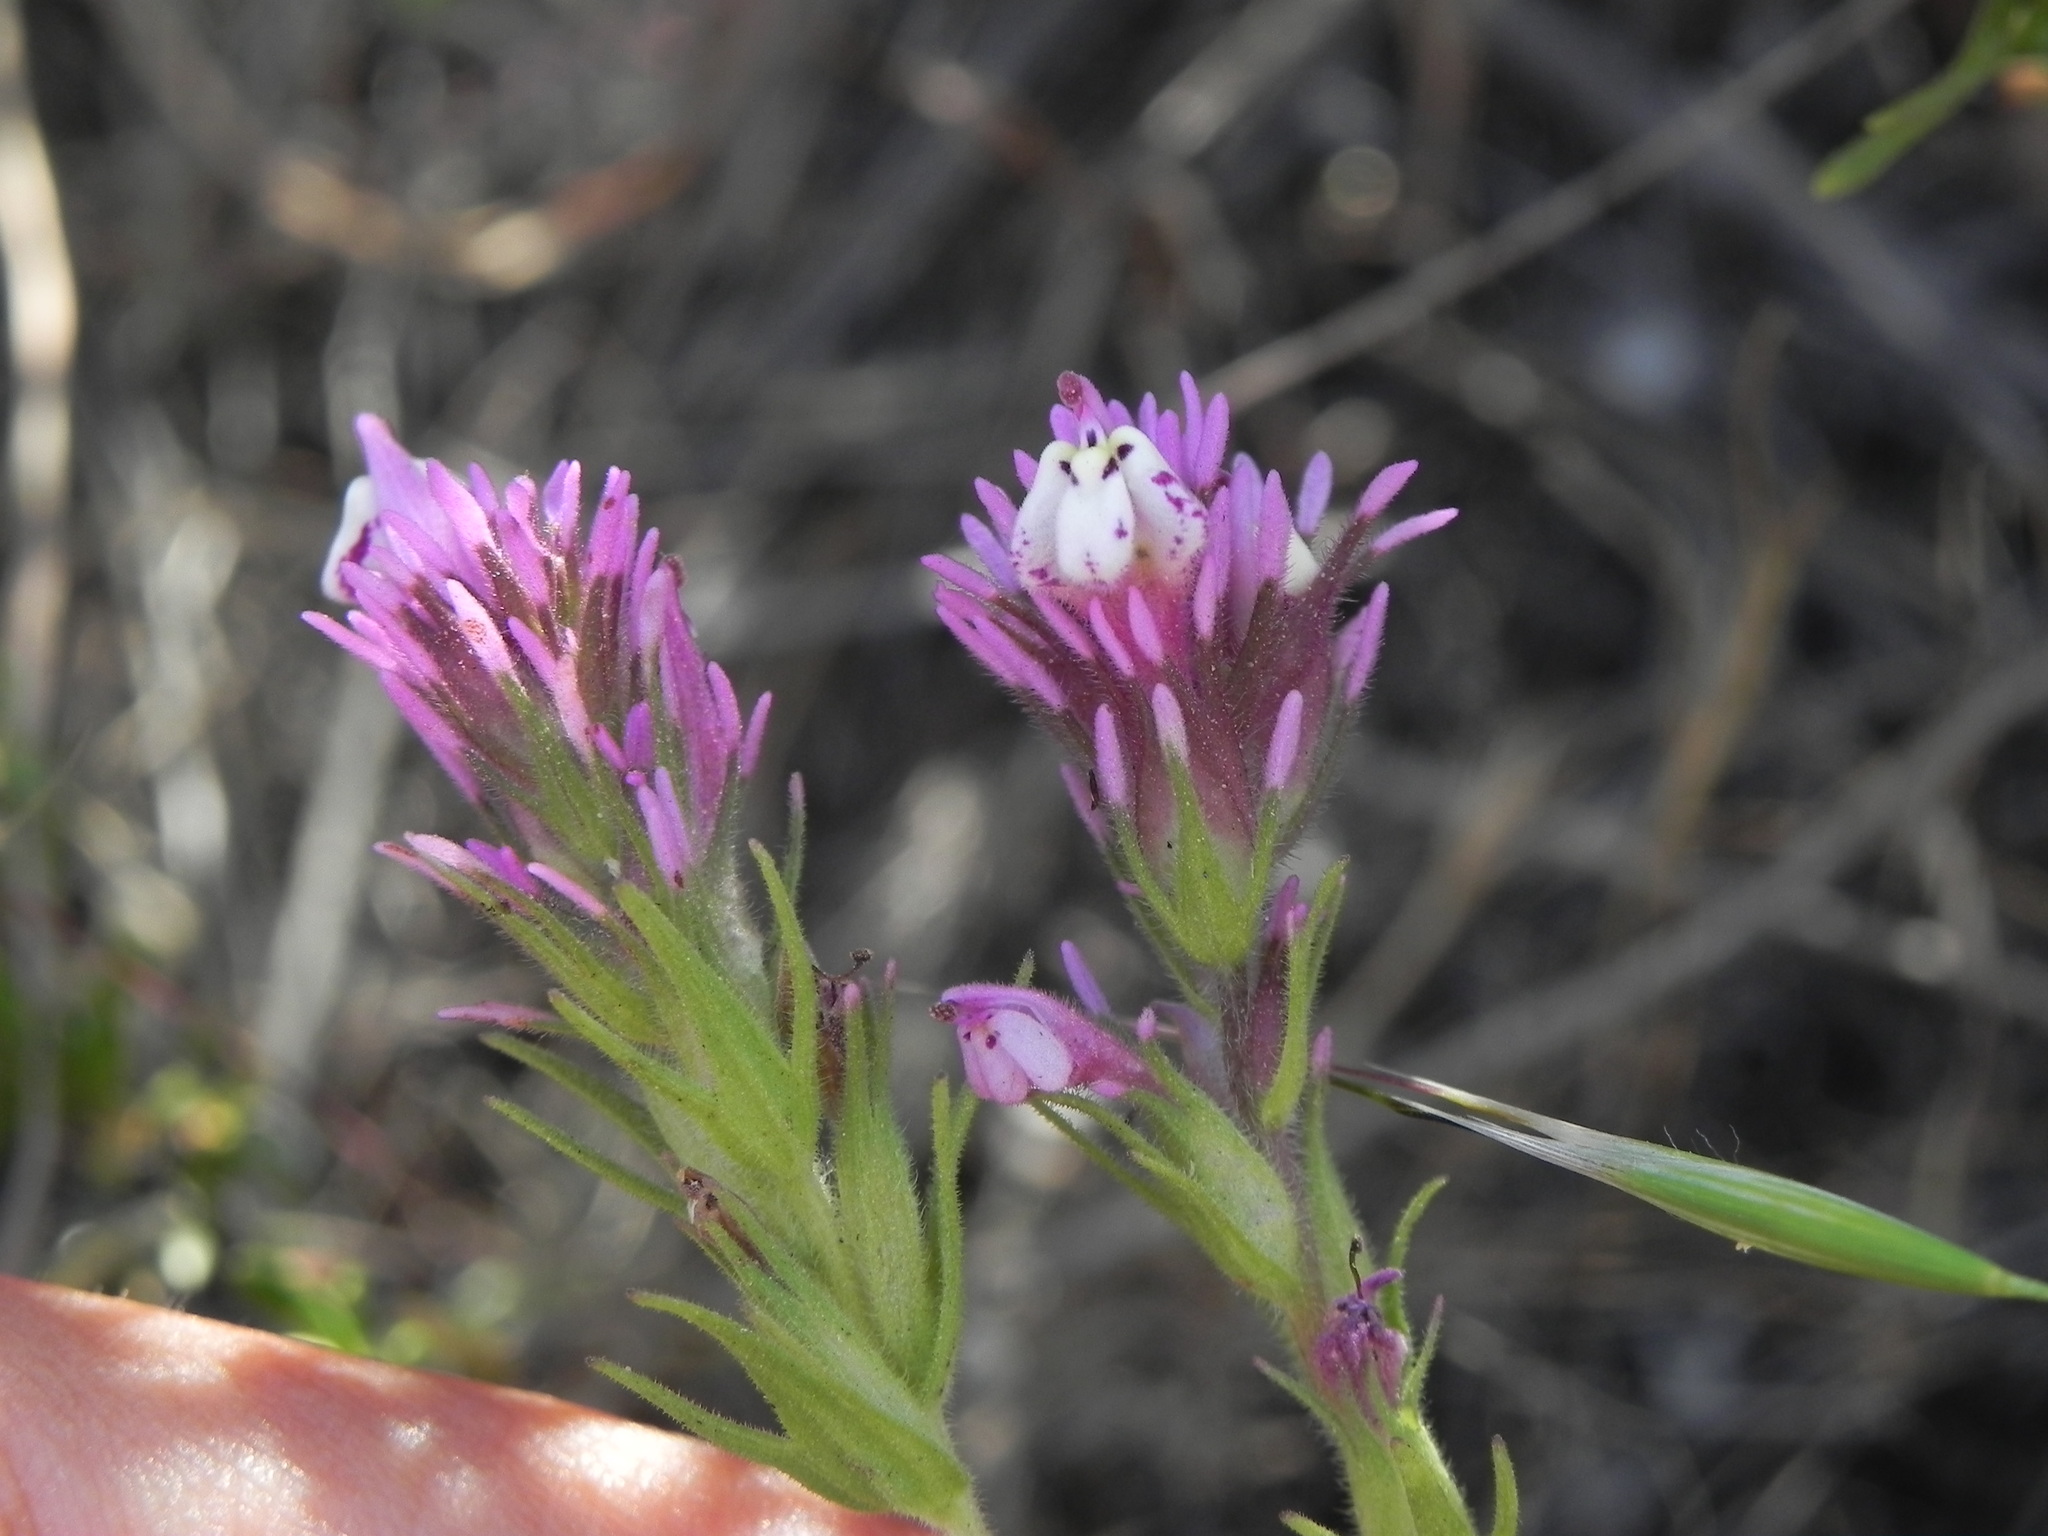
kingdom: Plantae
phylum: Tracheophyta
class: Magnoliopsida
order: Lamiales
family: Orobanchaceae
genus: Castilleja
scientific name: Castilleja densiflora
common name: Dense-flower indian paintbrush
